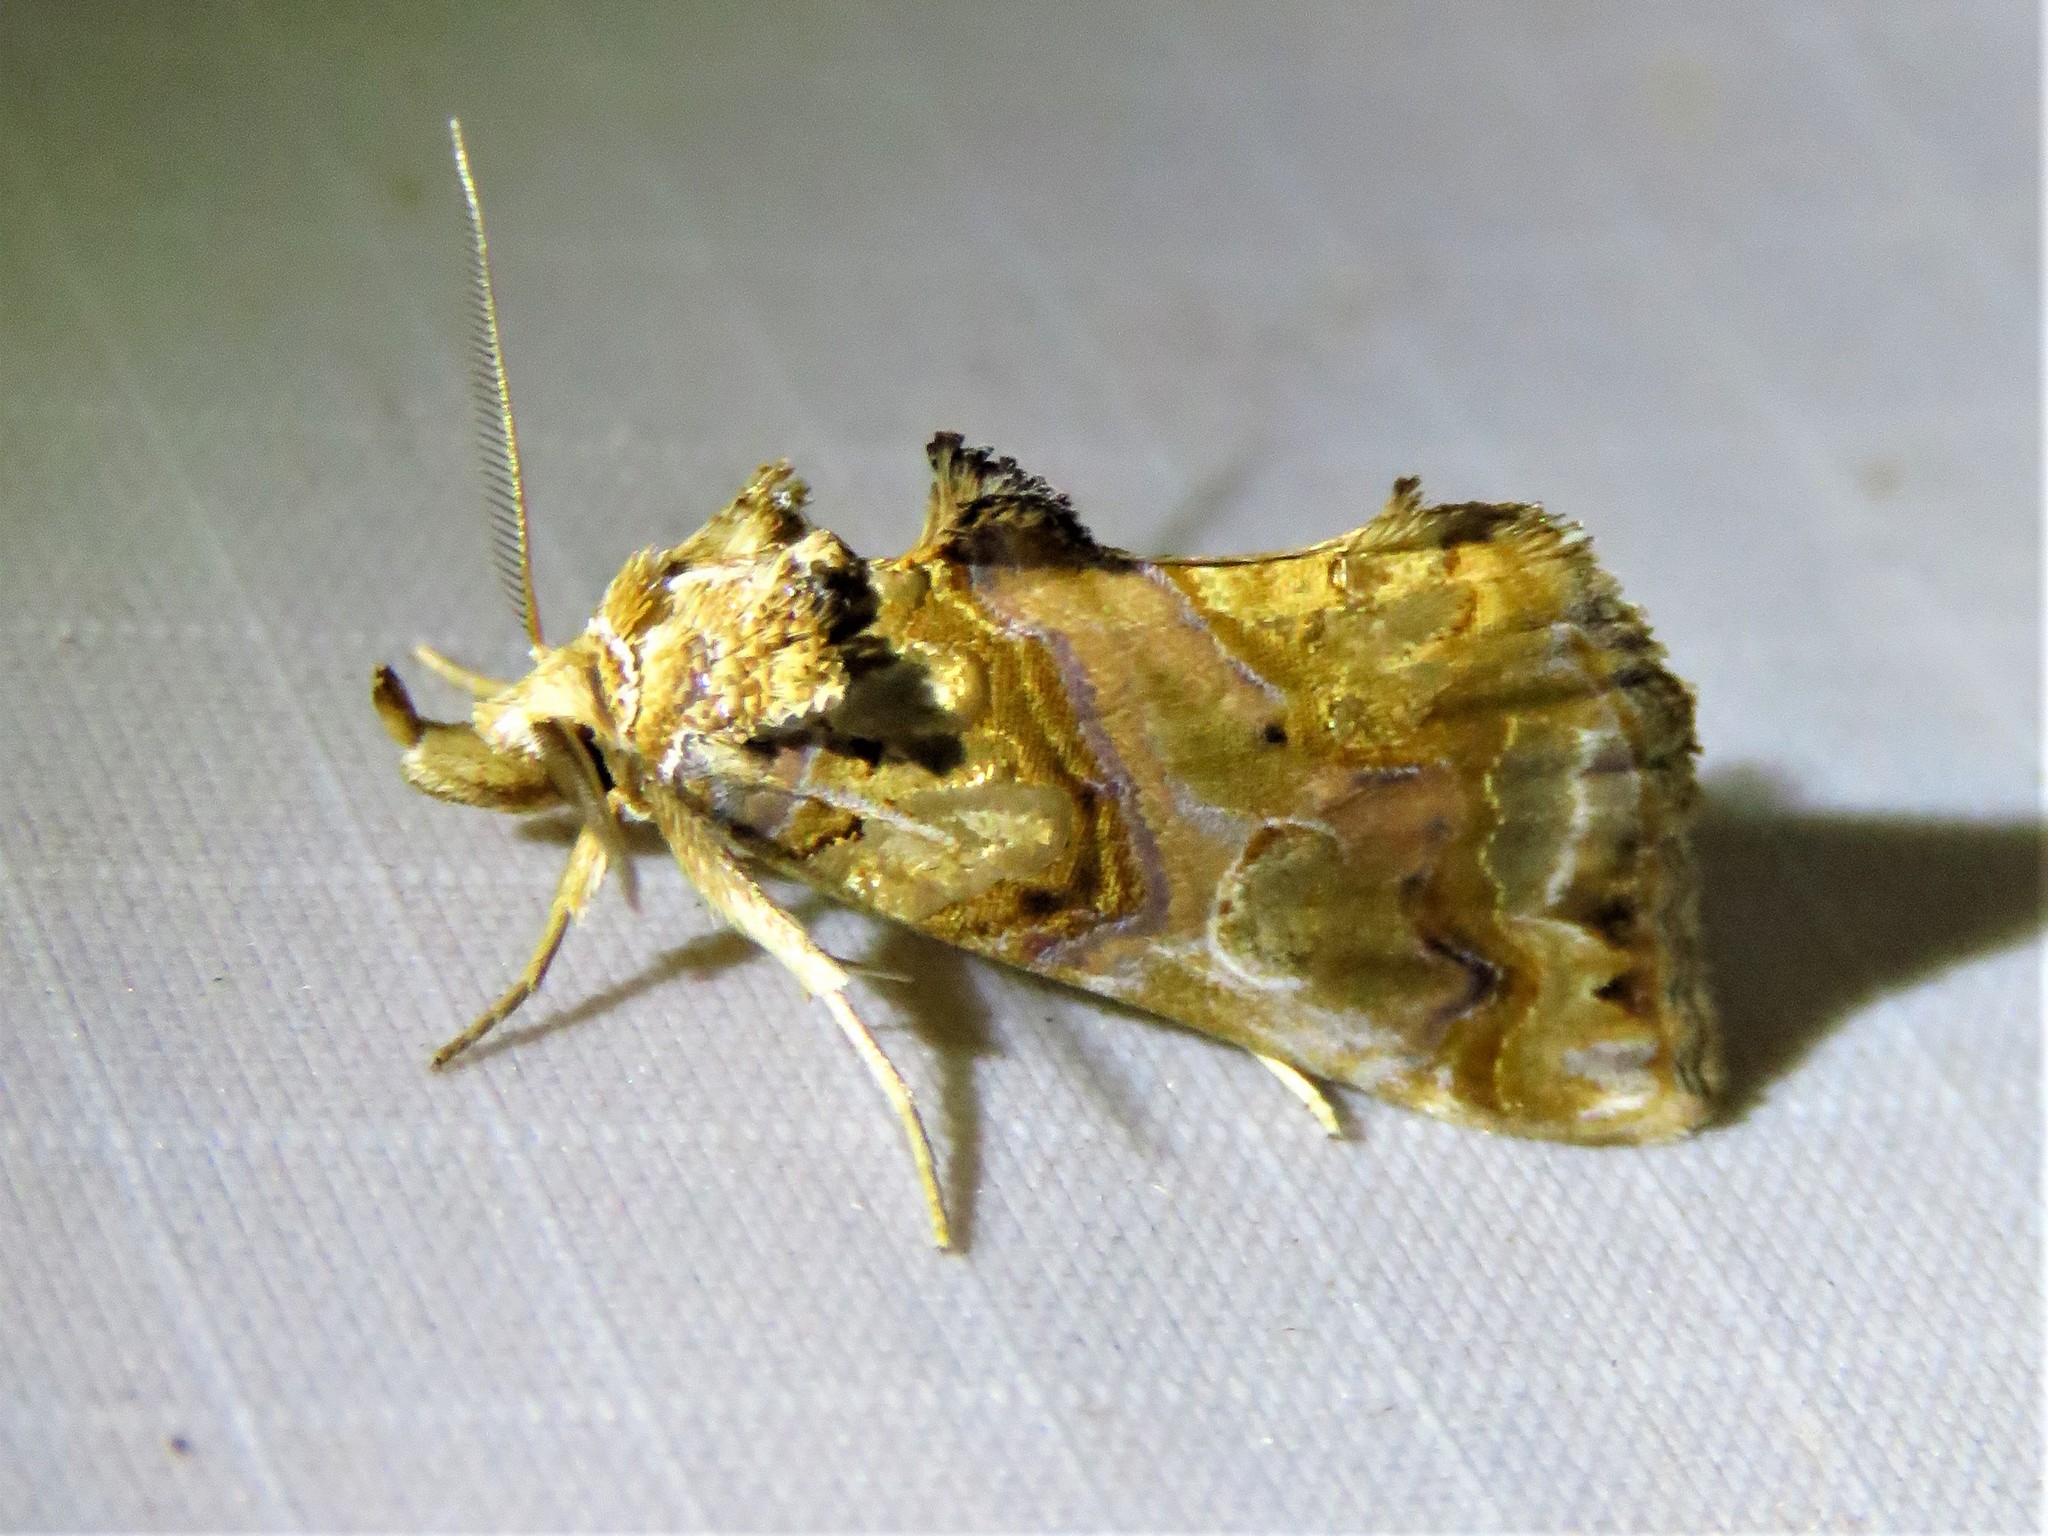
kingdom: Animalia
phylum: Arthropoda
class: Insecta
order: Lepidoptera
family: Erebidae
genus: Plusiodonta
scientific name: Plusiodonta compressipalpis
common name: Moonseed moth
